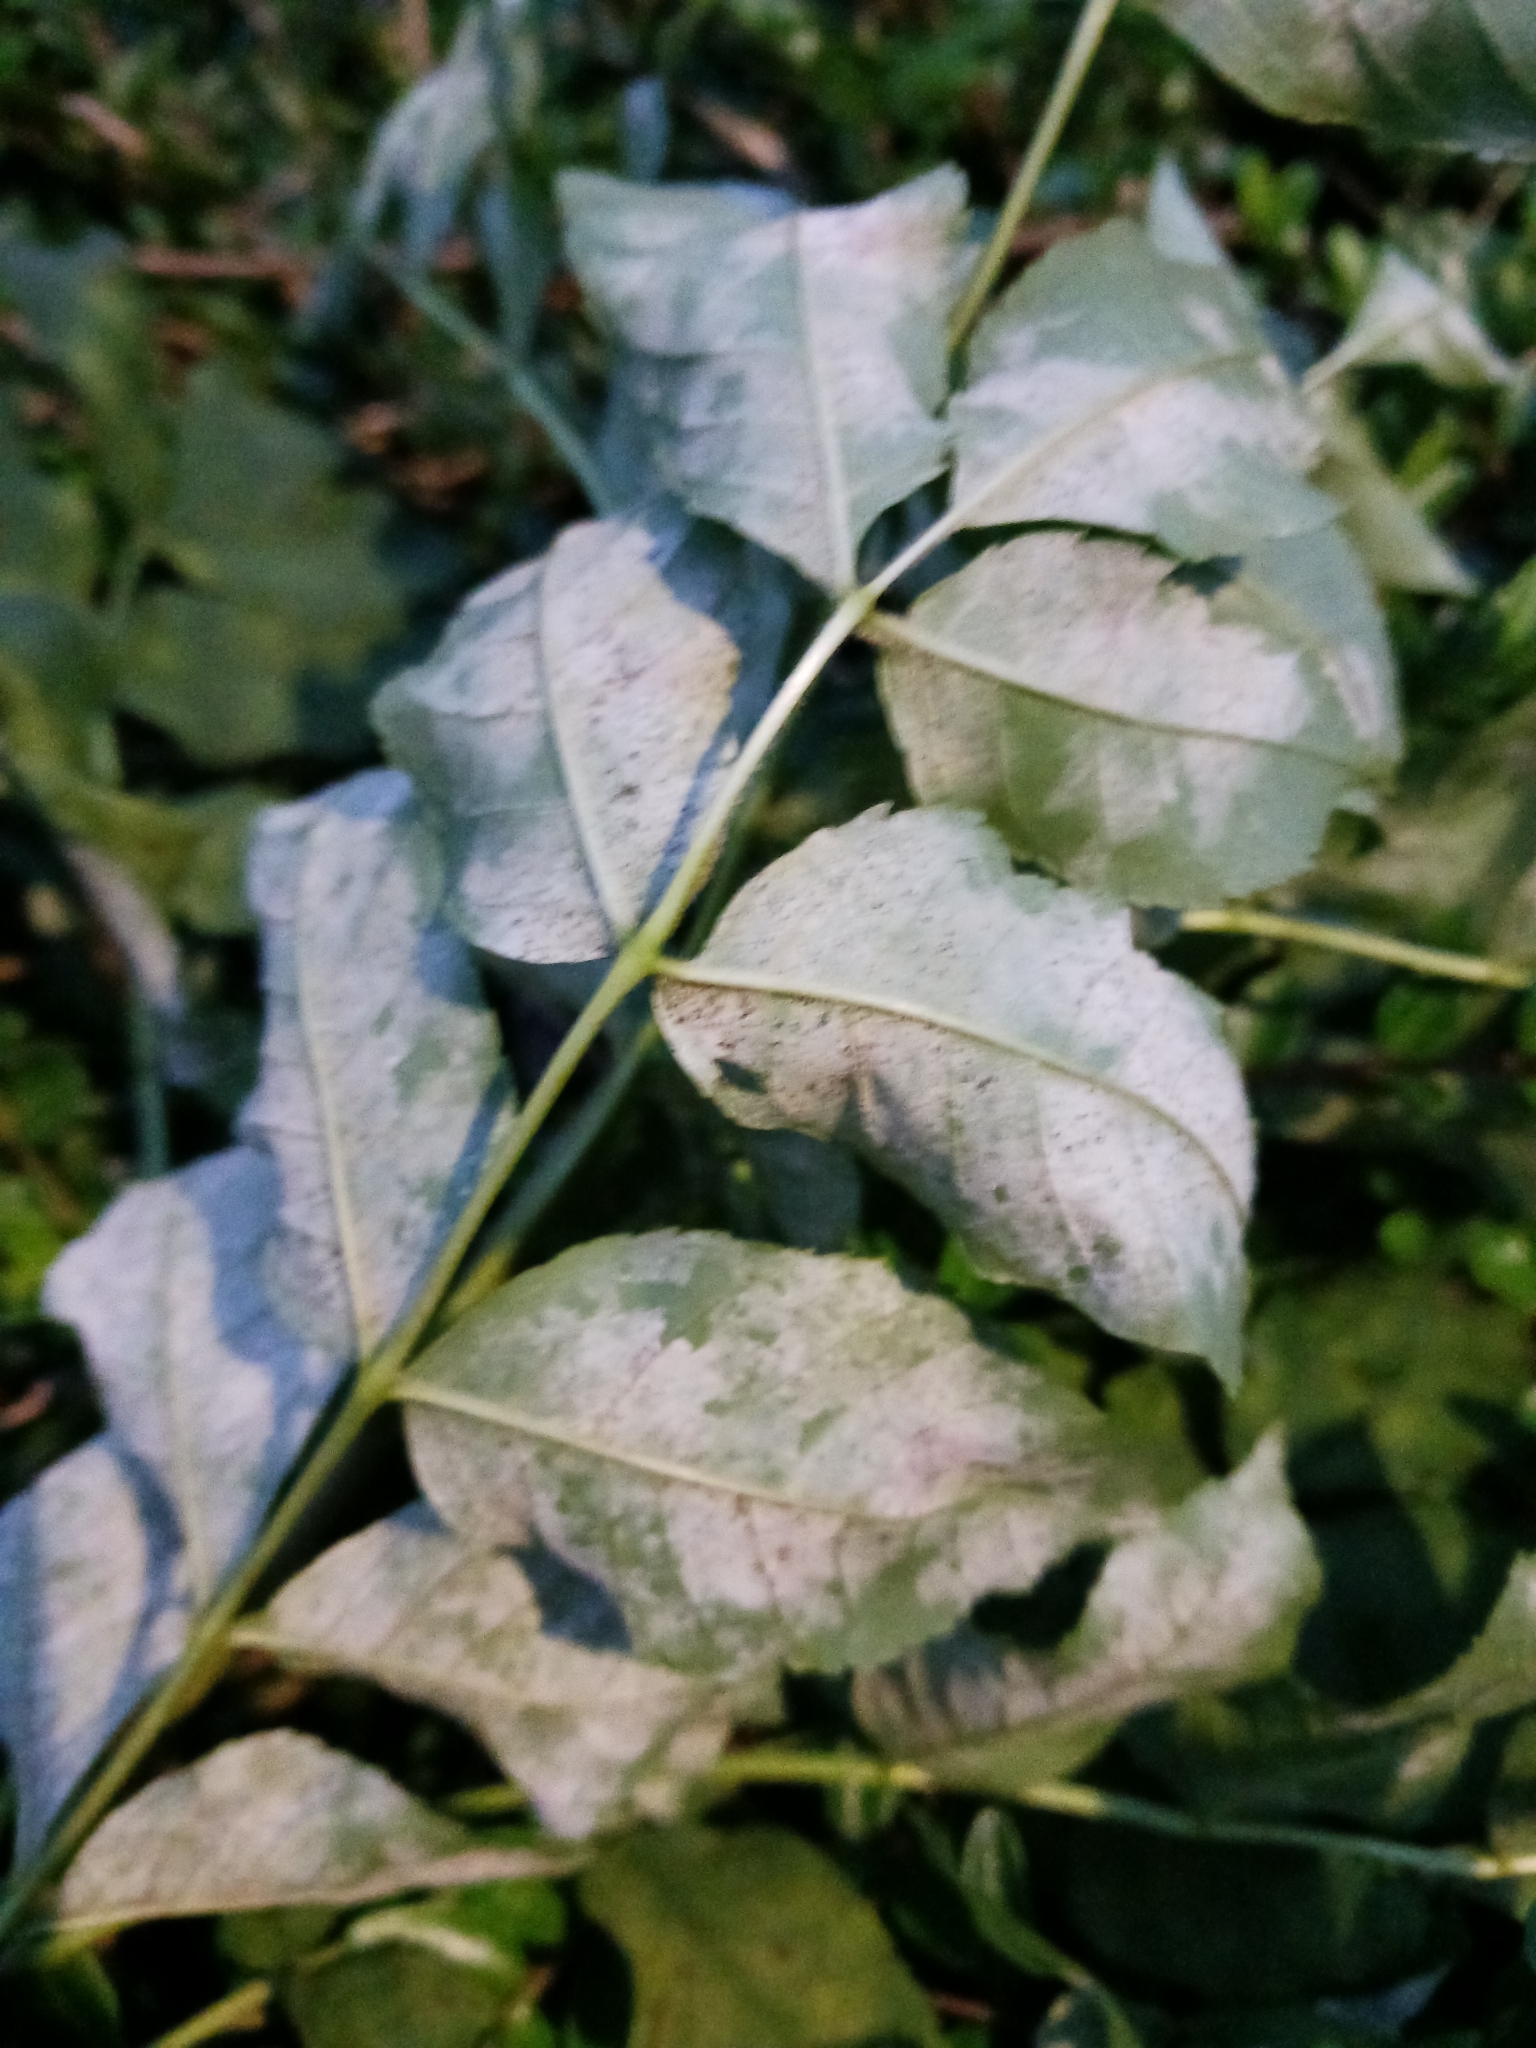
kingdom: Fungi
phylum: Ascomycota
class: Leotiomycetes
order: Helotiales
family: Erysiphaceae
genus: Phyllactinia
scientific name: Phyllactinia fraxini
